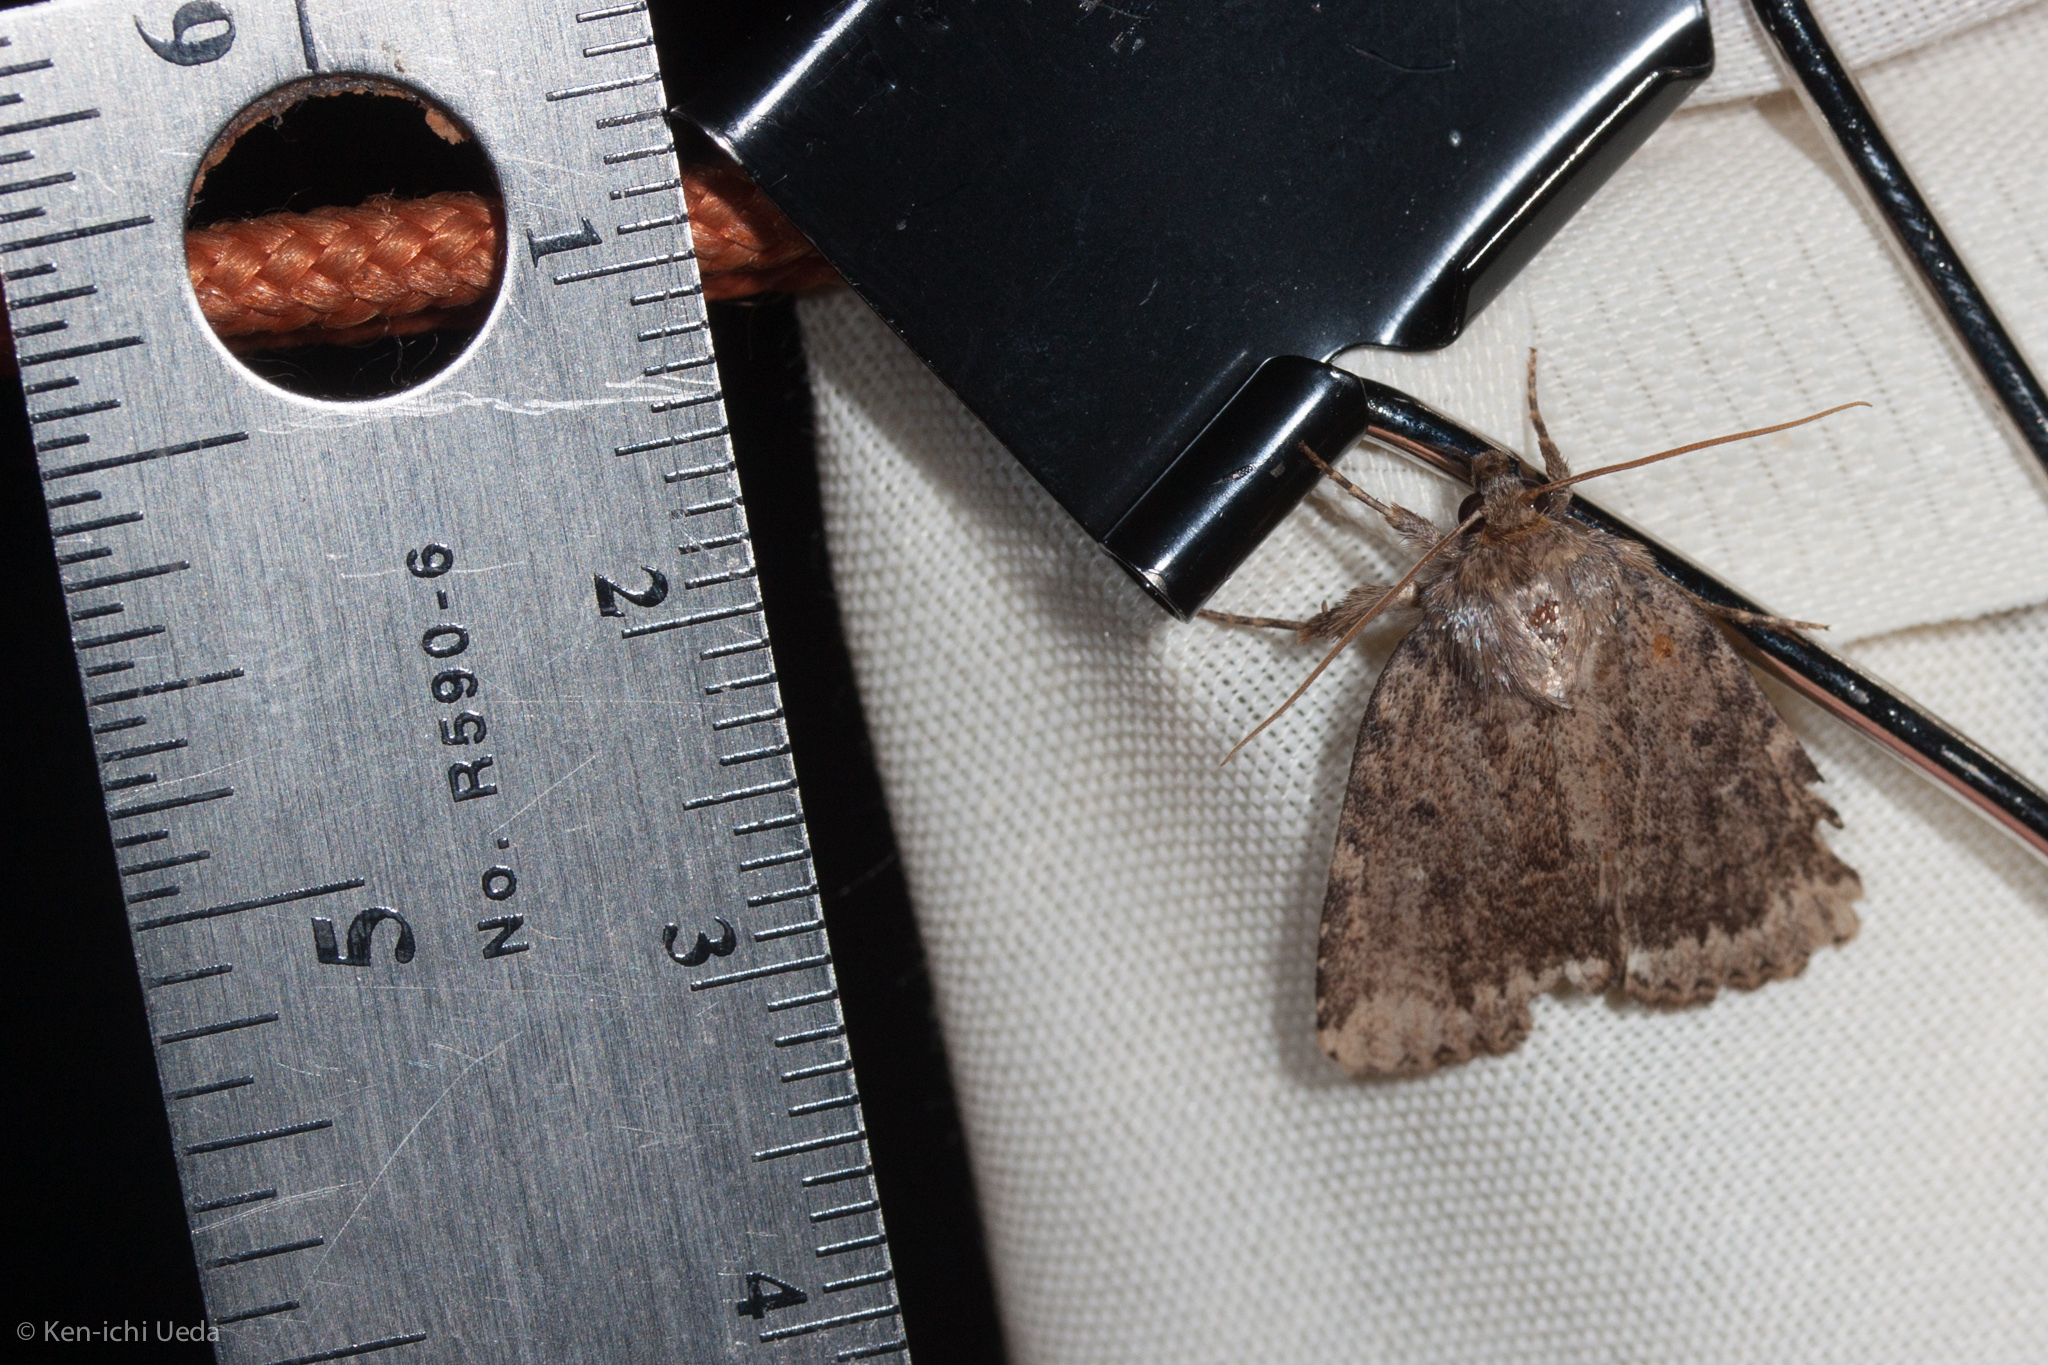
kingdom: Animalia
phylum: Arthropoda
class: Insecta
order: Lepidoptera
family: Noctuidae
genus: Amphipyra
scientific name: Amphipyra brunneoatra
